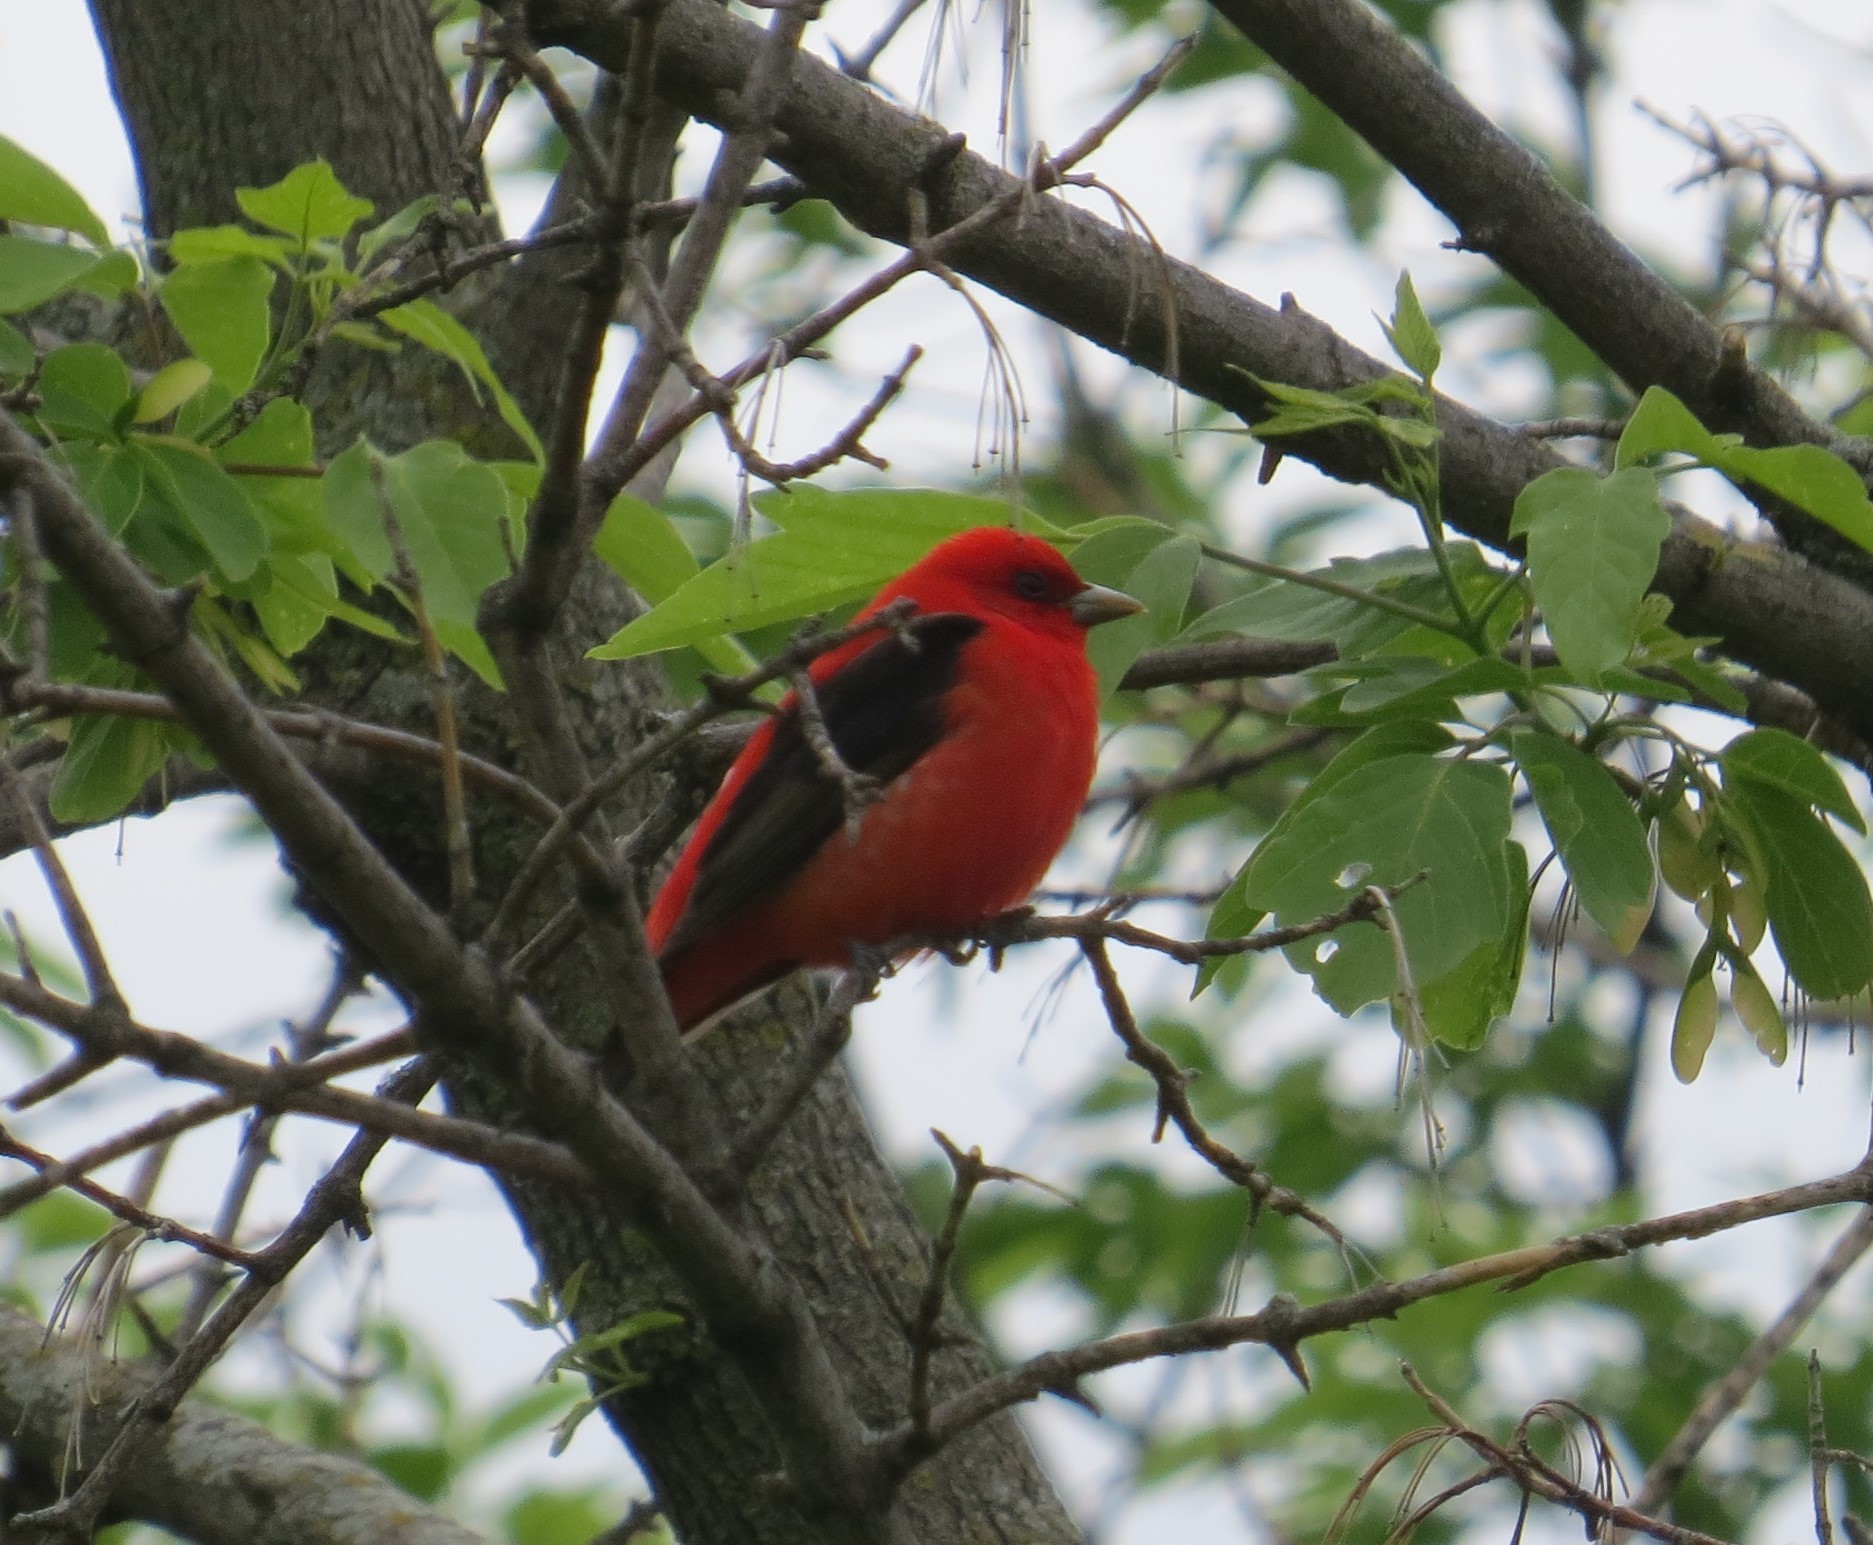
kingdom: Animalia
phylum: Chordata
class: Aves
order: Passeriformes
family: Cardinalidae
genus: Piranga
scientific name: Piranga olivacea
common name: Scarlet tanager
